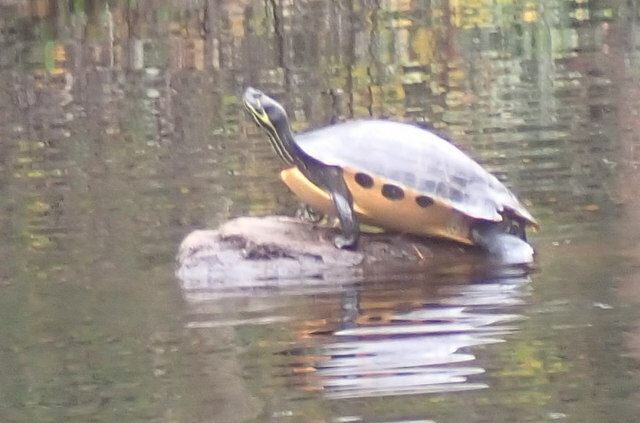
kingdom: Animalia
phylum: Chordata
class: Testudines
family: Emydidae
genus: Pseudemys
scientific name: Pseudemys concinna
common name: Eastern river cooter
